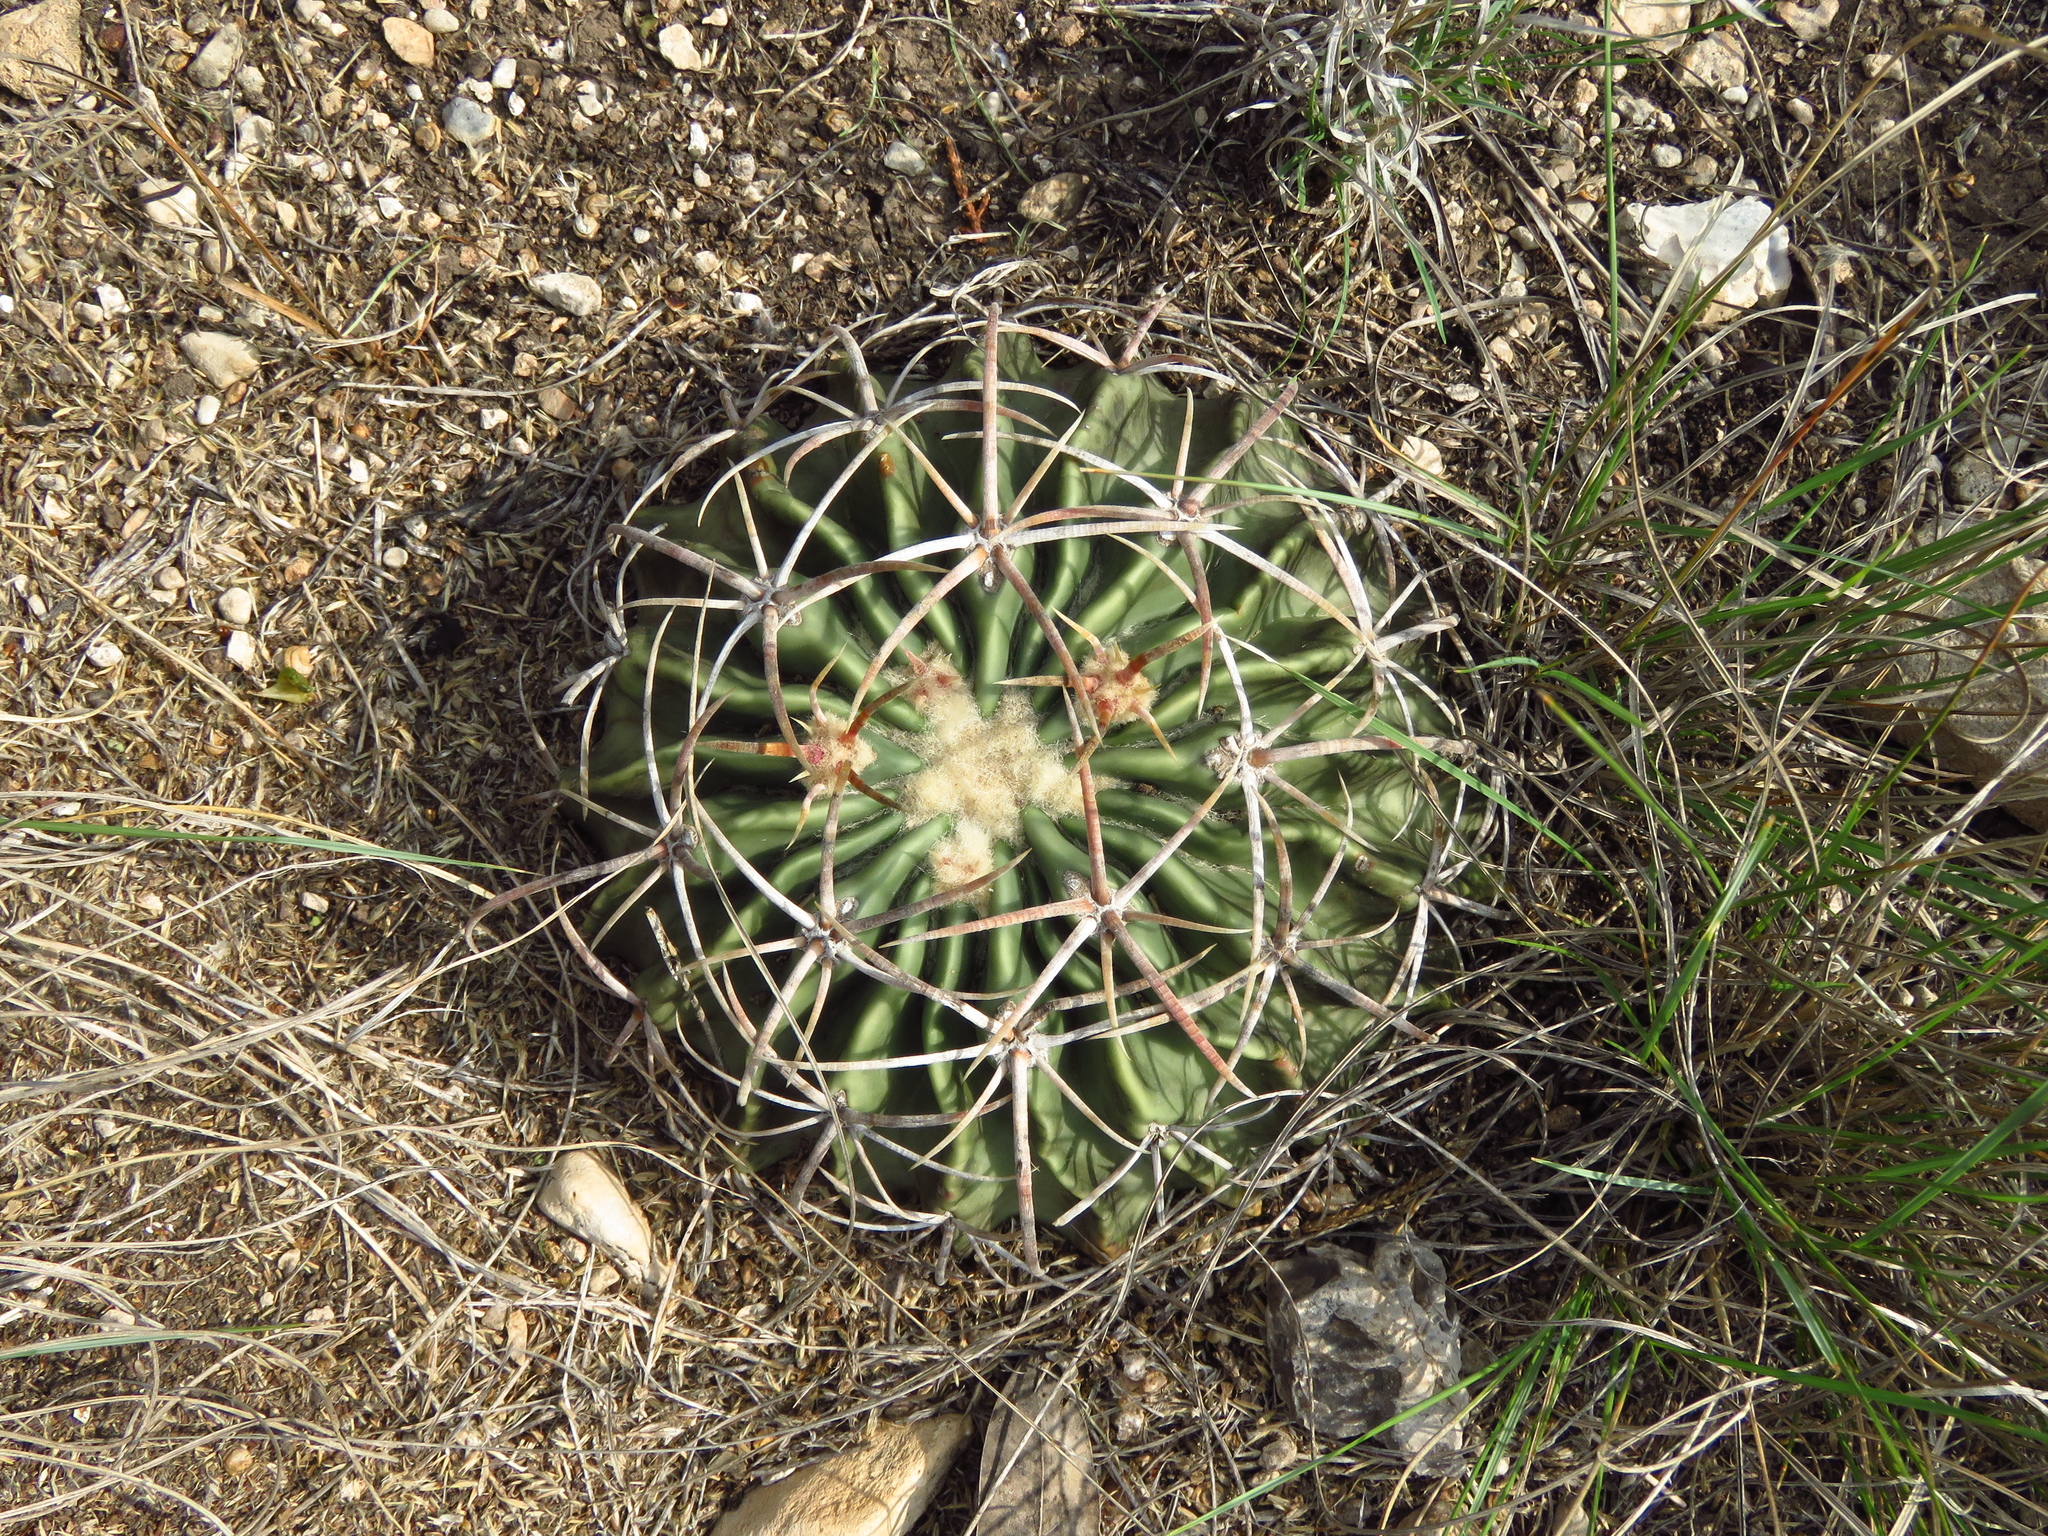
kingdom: Plantae
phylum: Tracheophyta
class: Magnoliopsida
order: Caryophyllales
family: Cactaceae
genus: Echinocactus
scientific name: Echinocactus texensis
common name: Devil's pincushion
